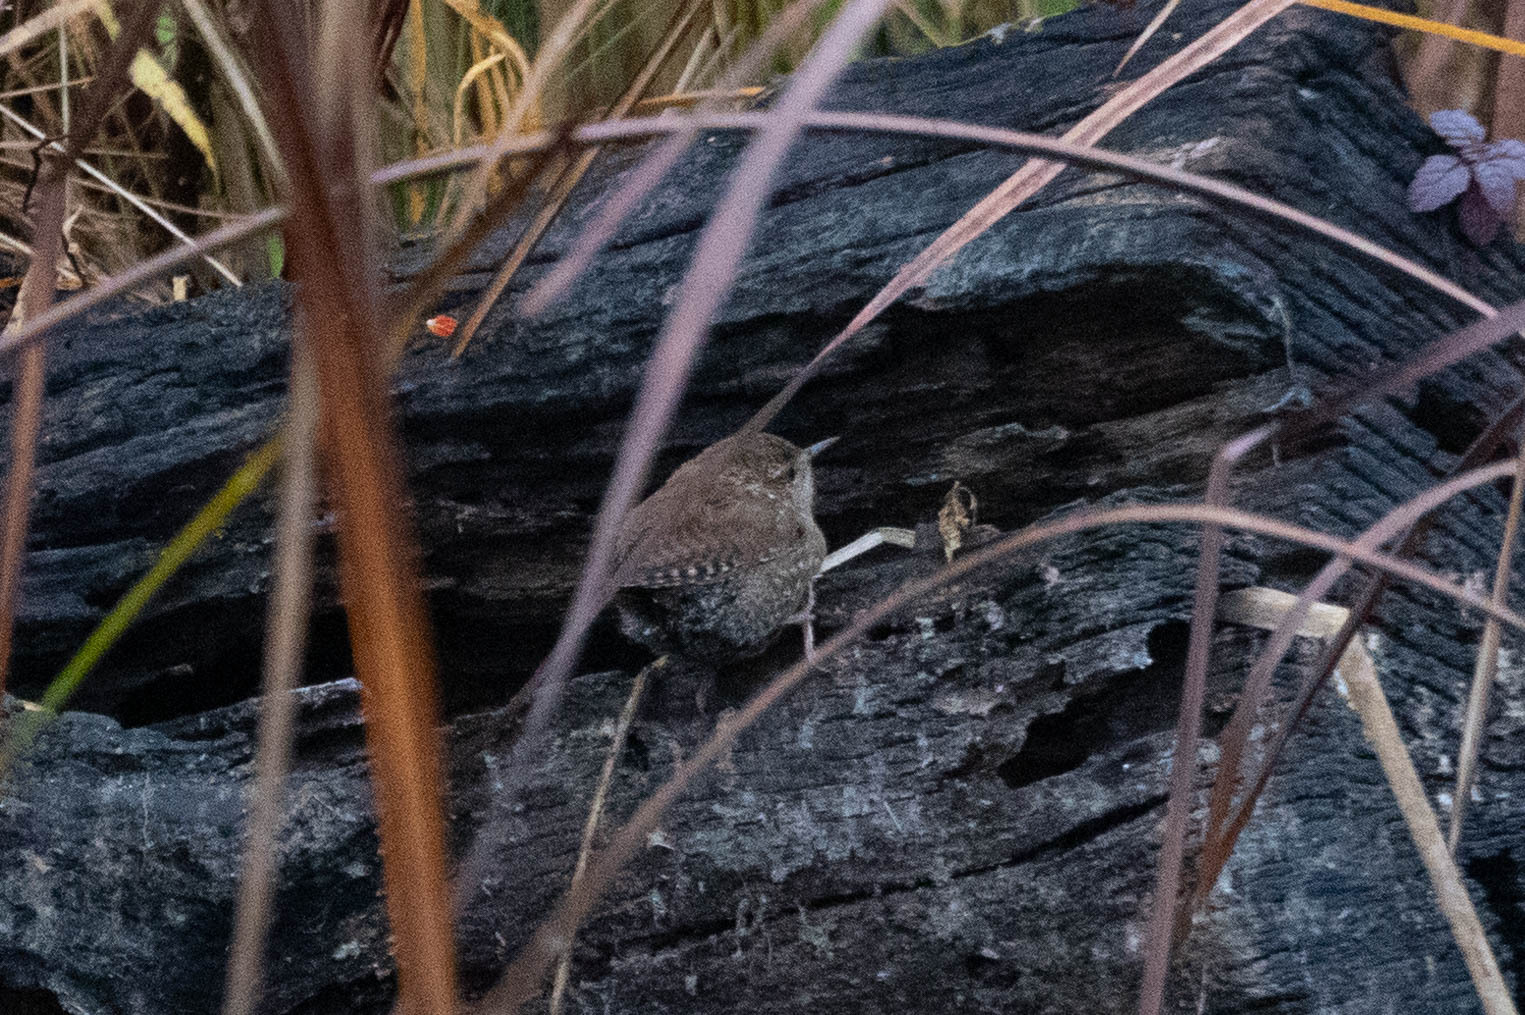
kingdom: Animalia
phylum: Chordata
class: Aves
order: Passeriformes
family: Troglodytidae
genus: Troglodytes
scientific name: Troglodytes hiemalis
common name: Winter wren
